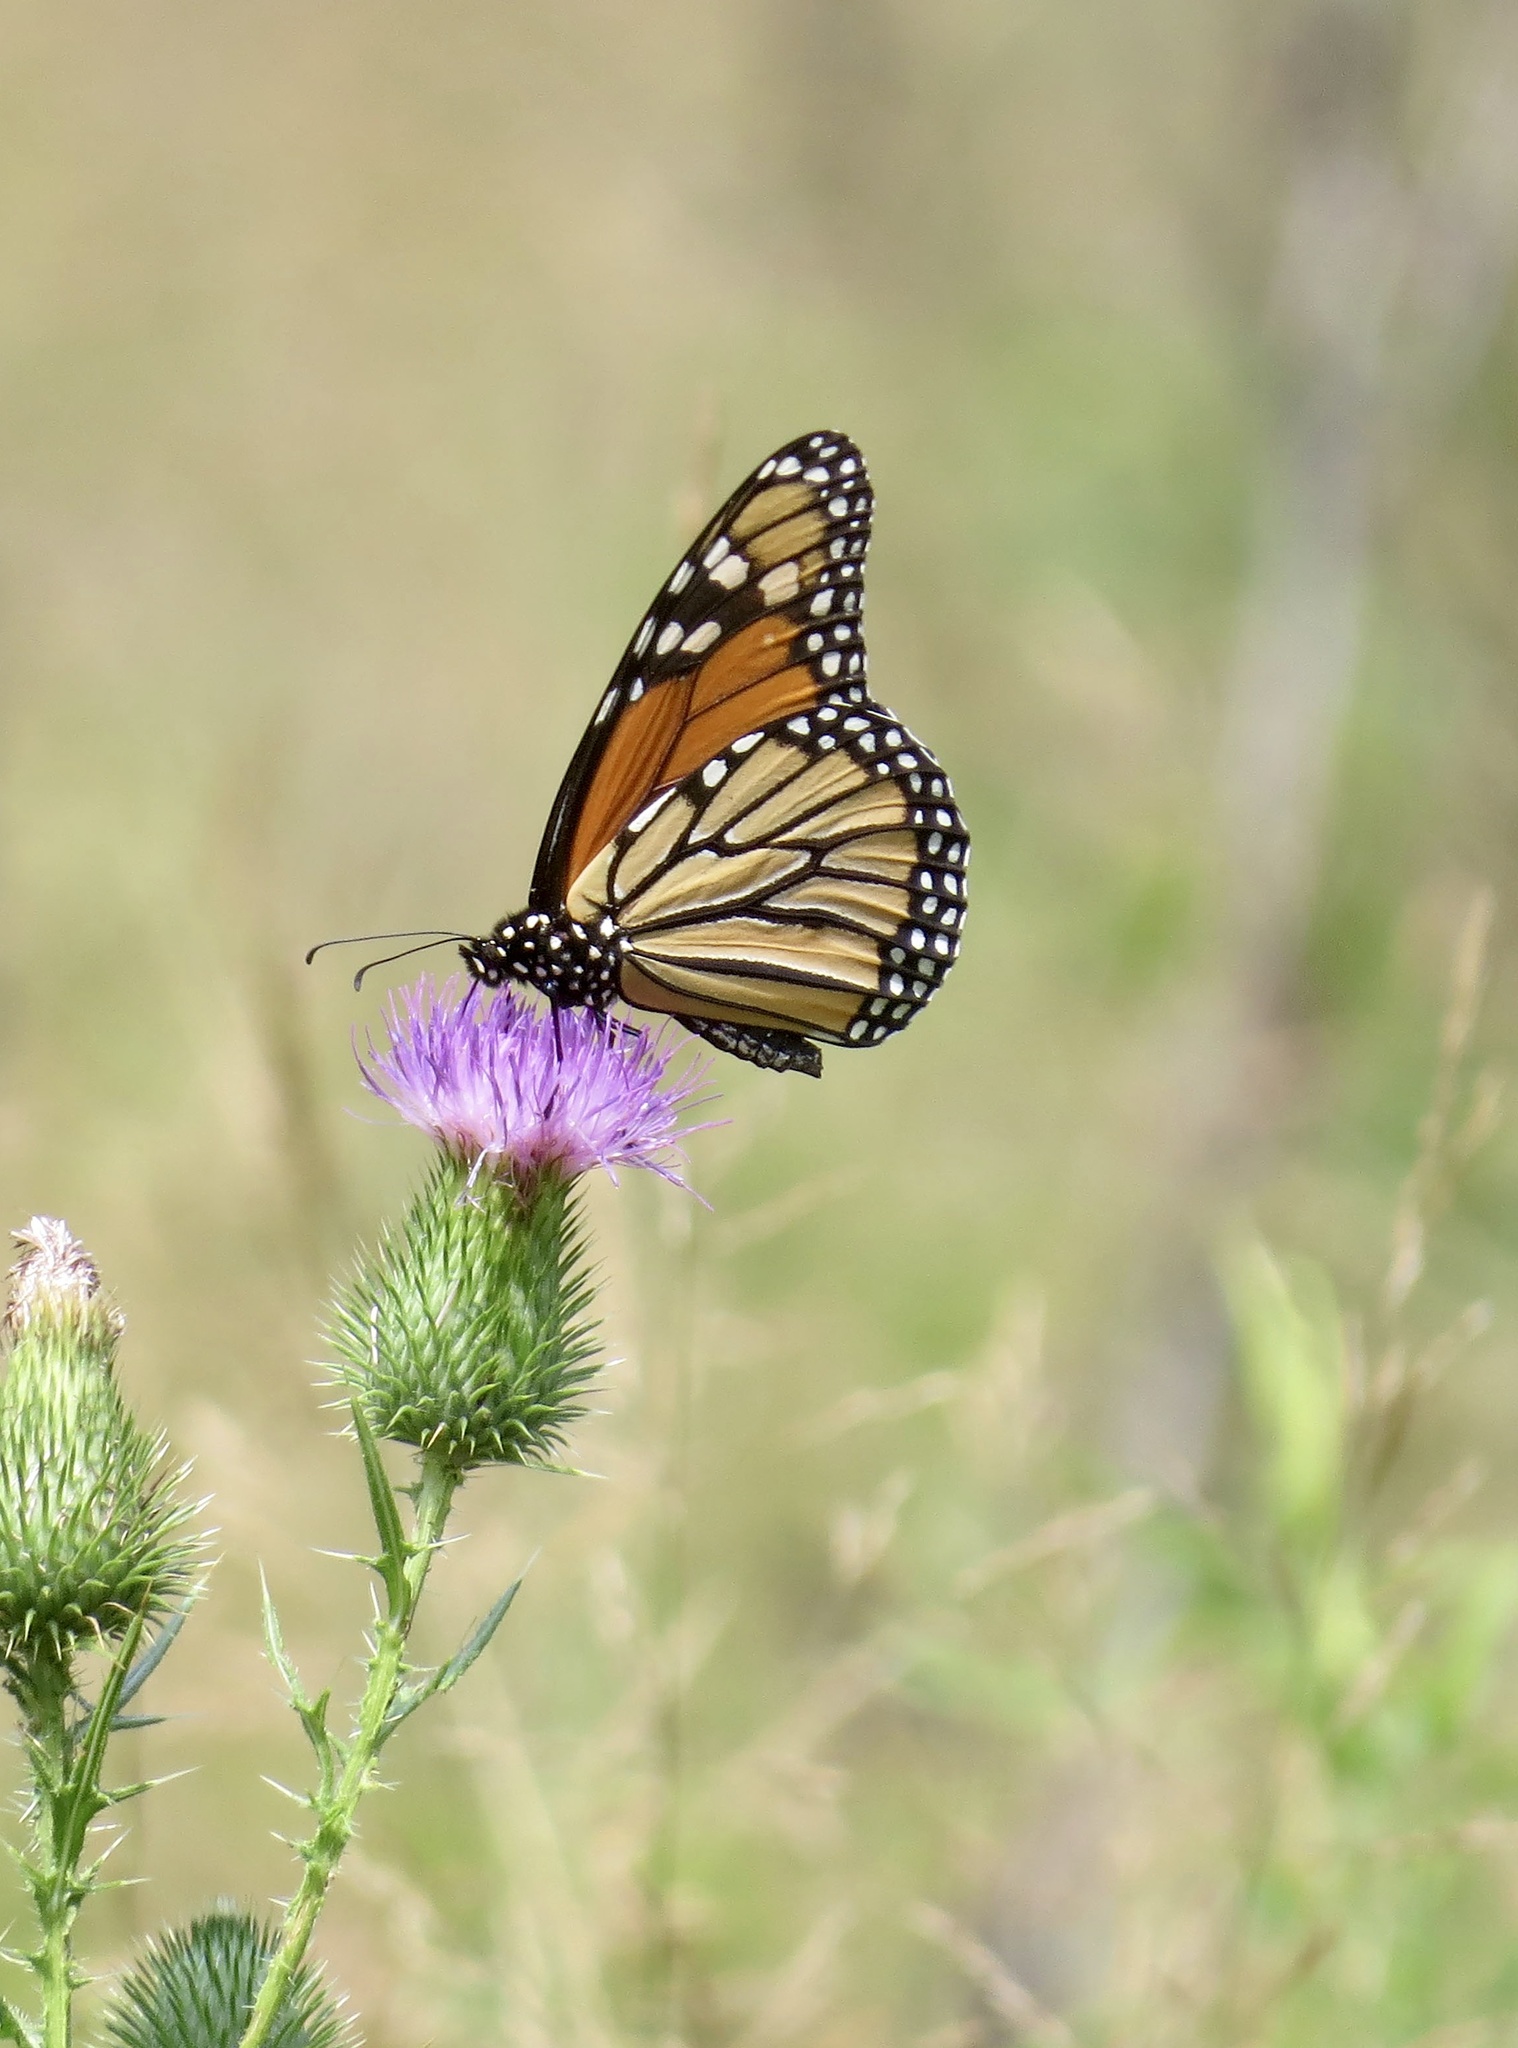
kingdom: Animalia
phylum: Arthropoda
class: Insecta
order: Lepidoptera
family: Nymphalidae
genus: Danaus
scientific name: Danaus plexippus
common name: Monarch
